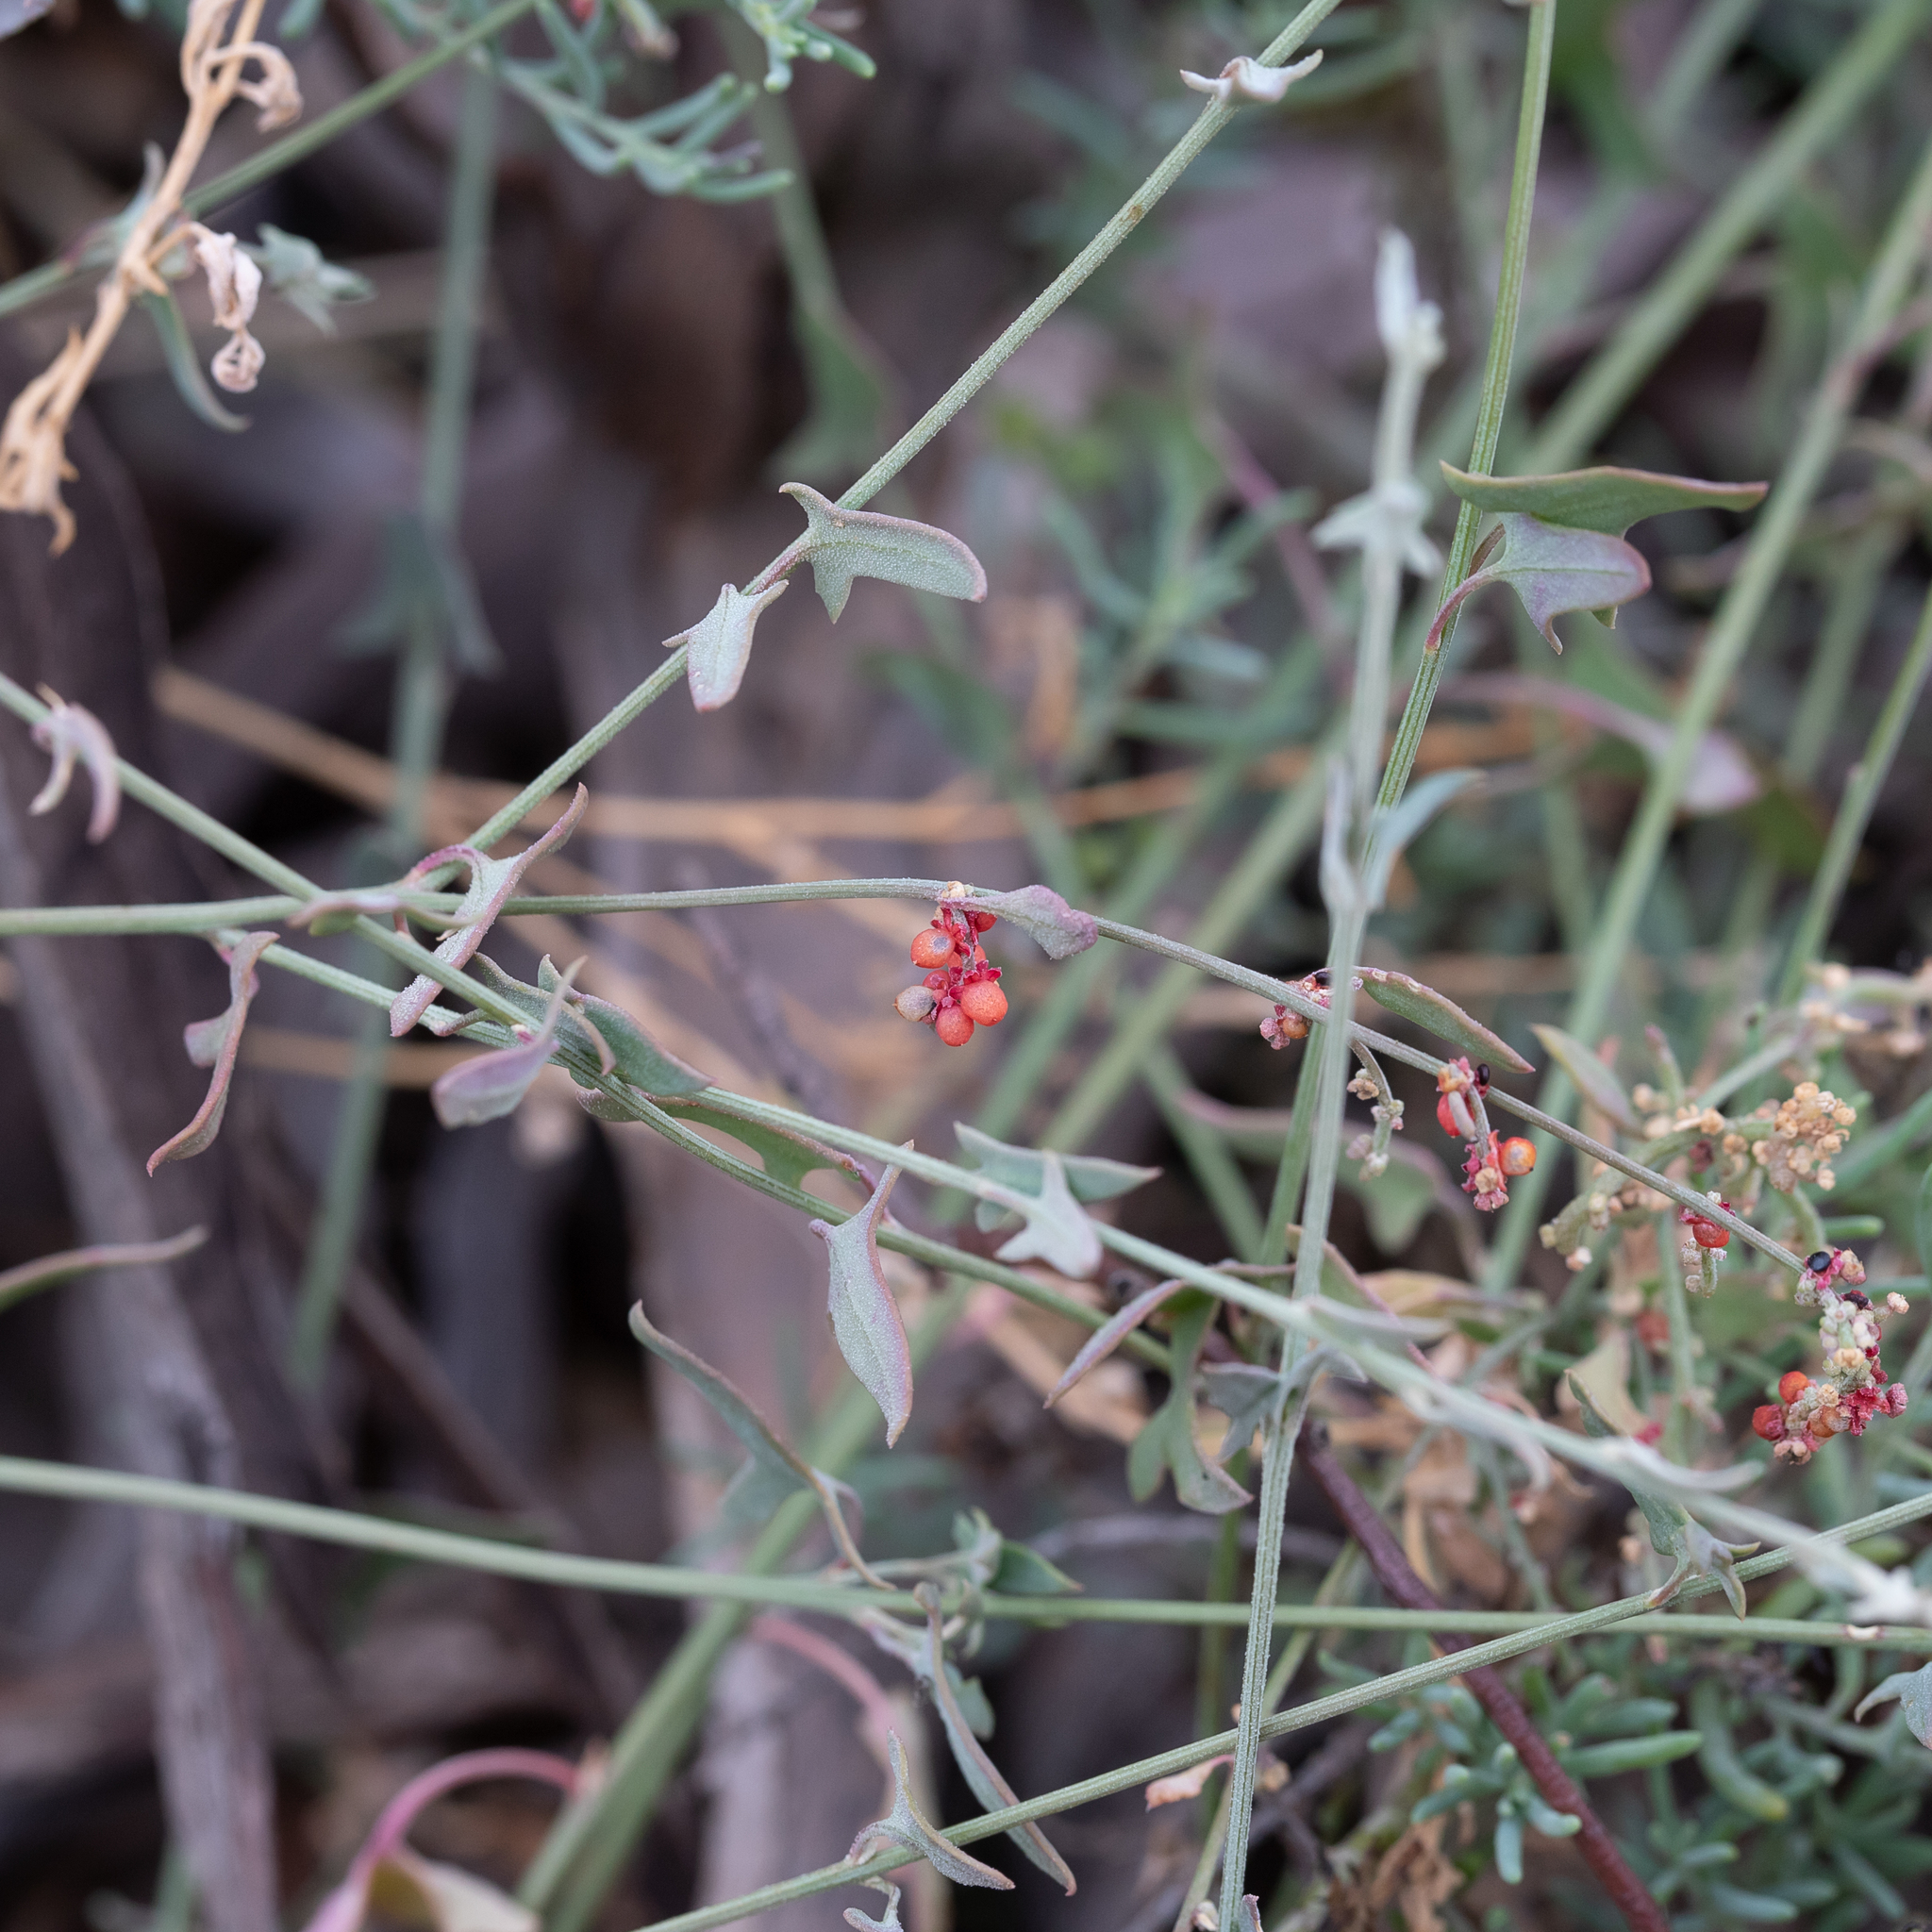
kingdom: Plantae
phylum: Tracheophyta
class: Magnoliopsida
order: Caryophyllales
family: Amaranthaceae
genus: Chenopodium
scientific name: Chenopodium nutans
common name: Climbing-saltbush
